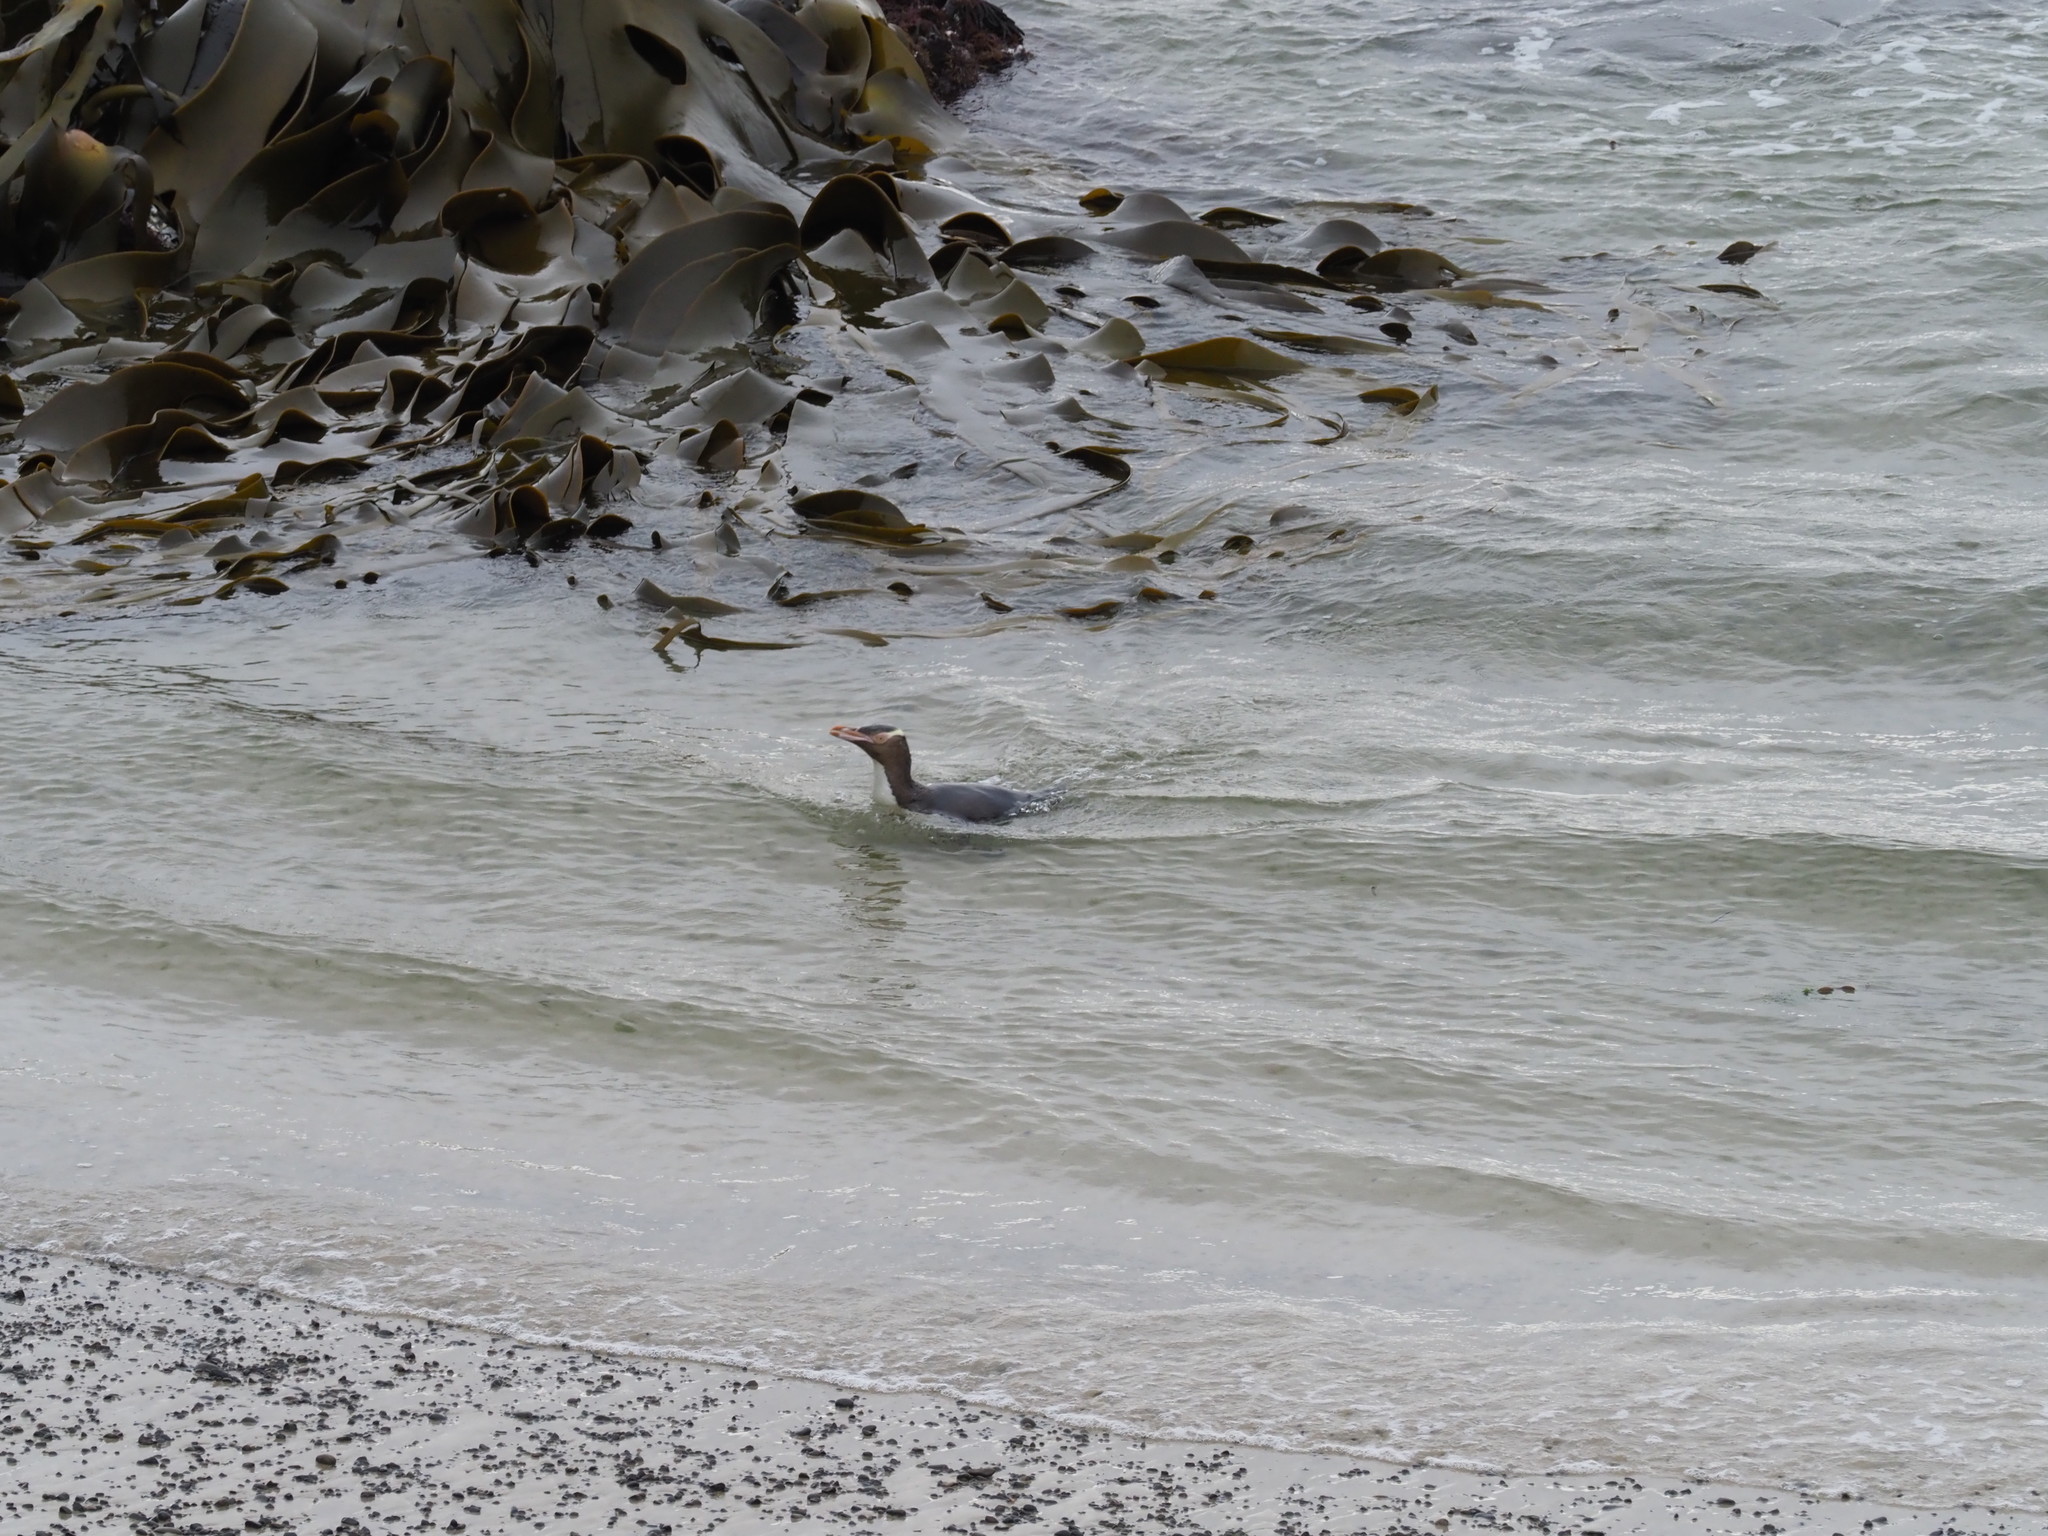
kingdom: Animalia
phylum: Chordata
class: Aves
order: Sphenisciformes
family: Spheniscidae
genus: Megadyptes
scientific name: Megadyptes antipodes
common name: Yellow-eyed penguin
